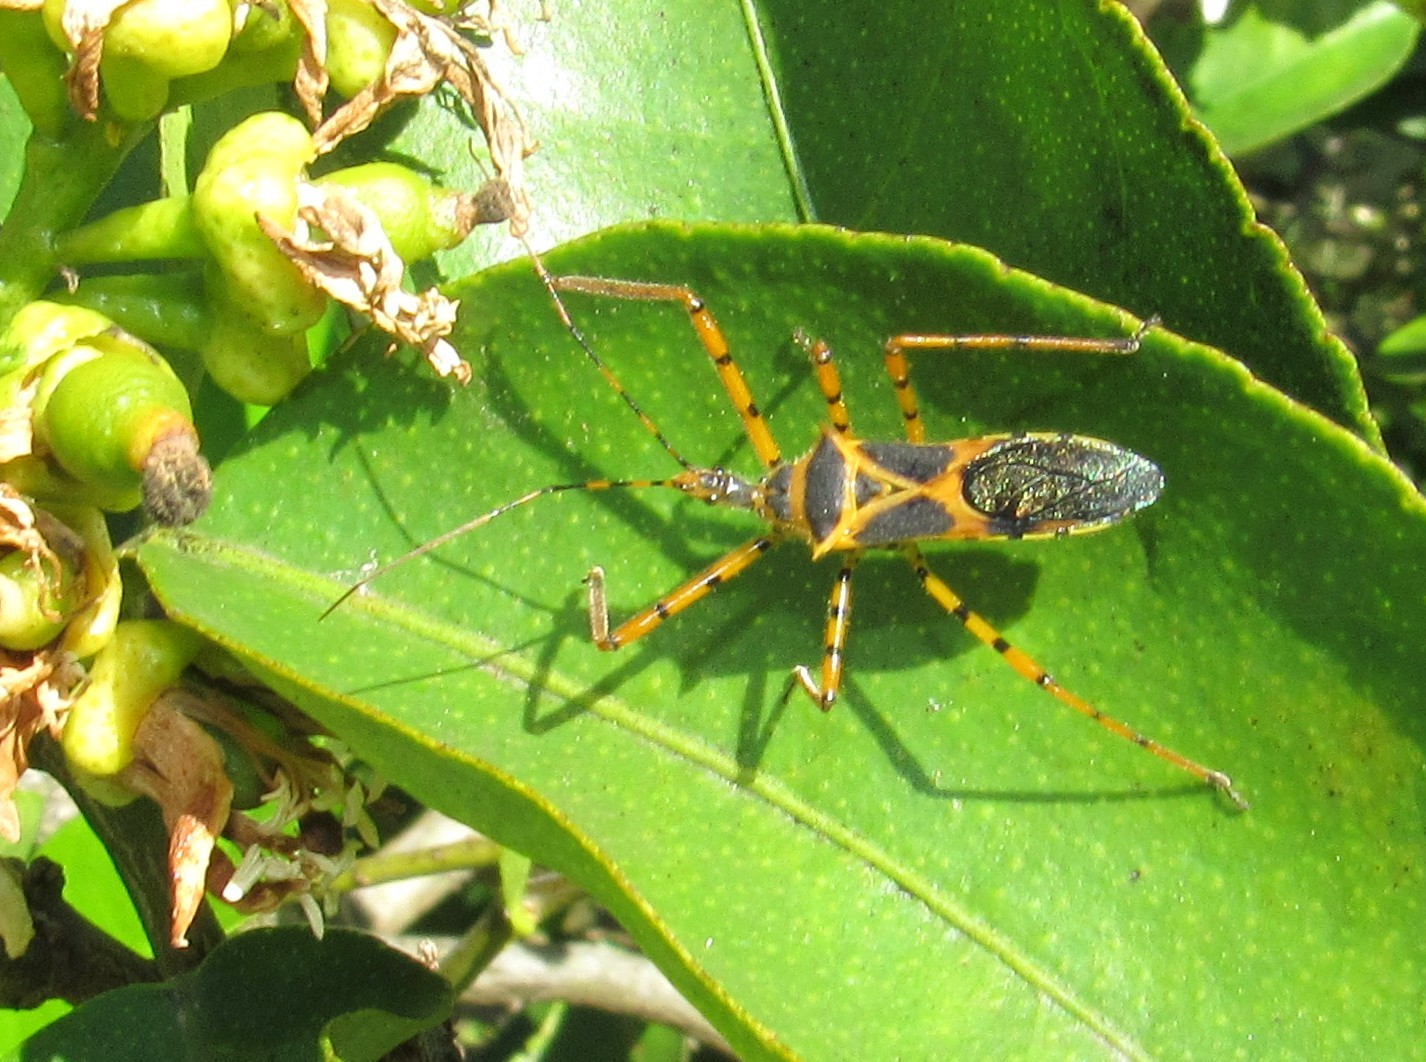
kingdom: Animalia
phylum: Arthropoda
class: Insecta
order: Hemiptera
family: Reduviidae
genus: Zelus
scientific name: Zelus armillatus
